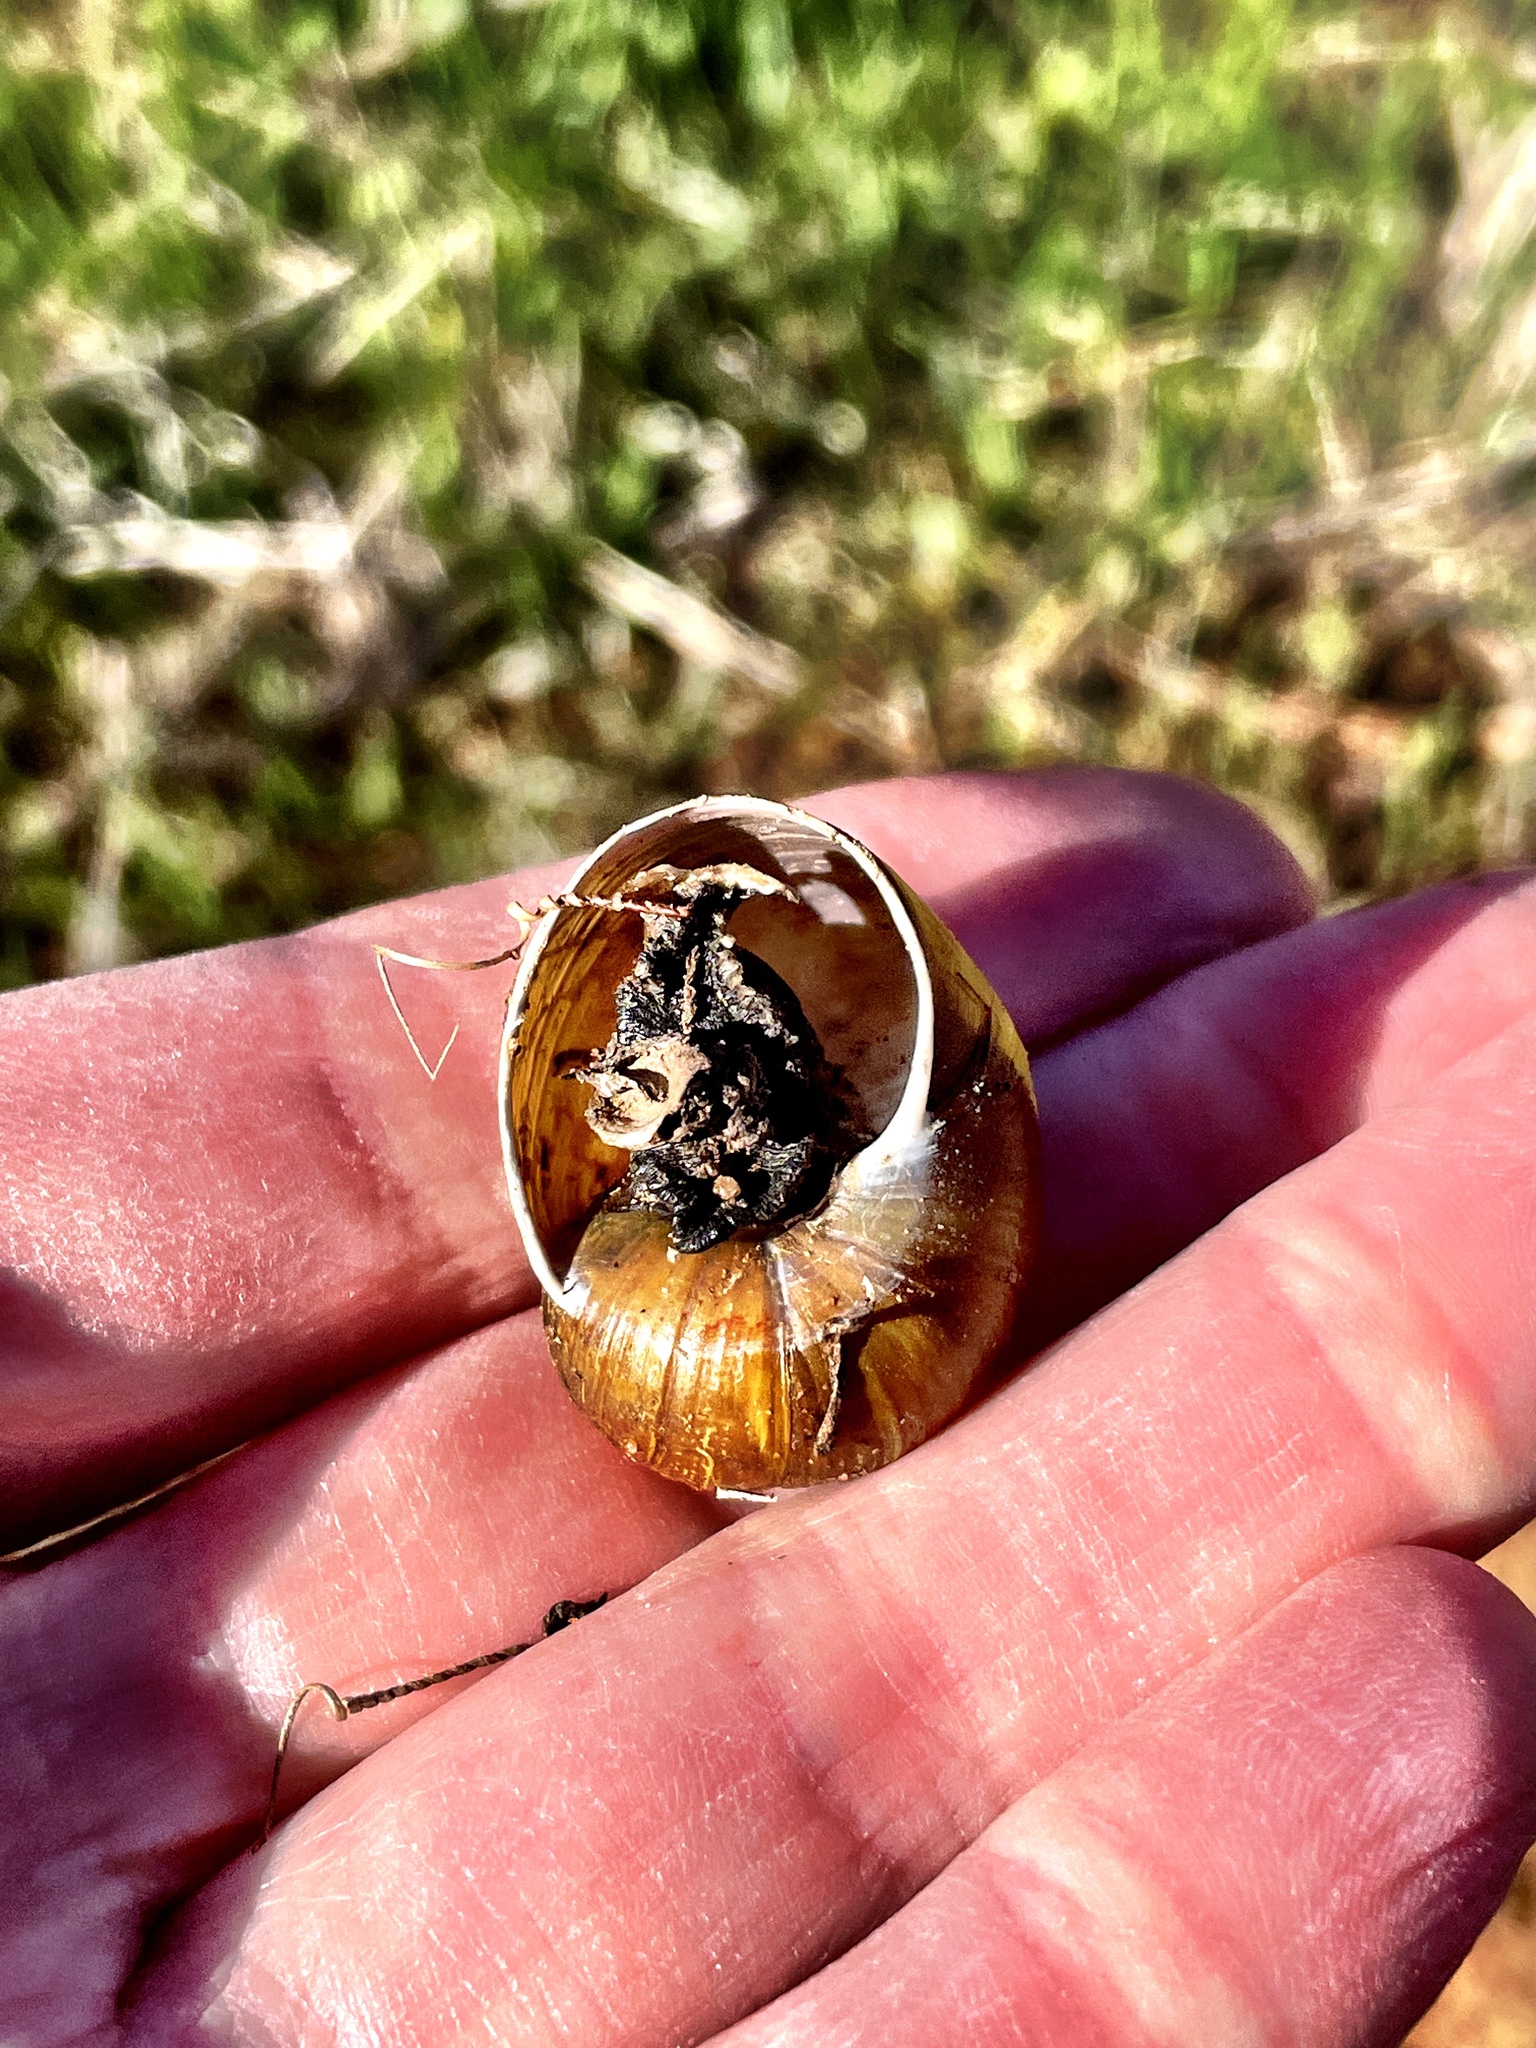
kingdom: Animalia
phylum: Mollusca
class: Gastropoda
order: Stylommatophora
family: Helicidae
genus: Cantareus
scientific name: Cantareus apertus
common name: Green gardensnail
